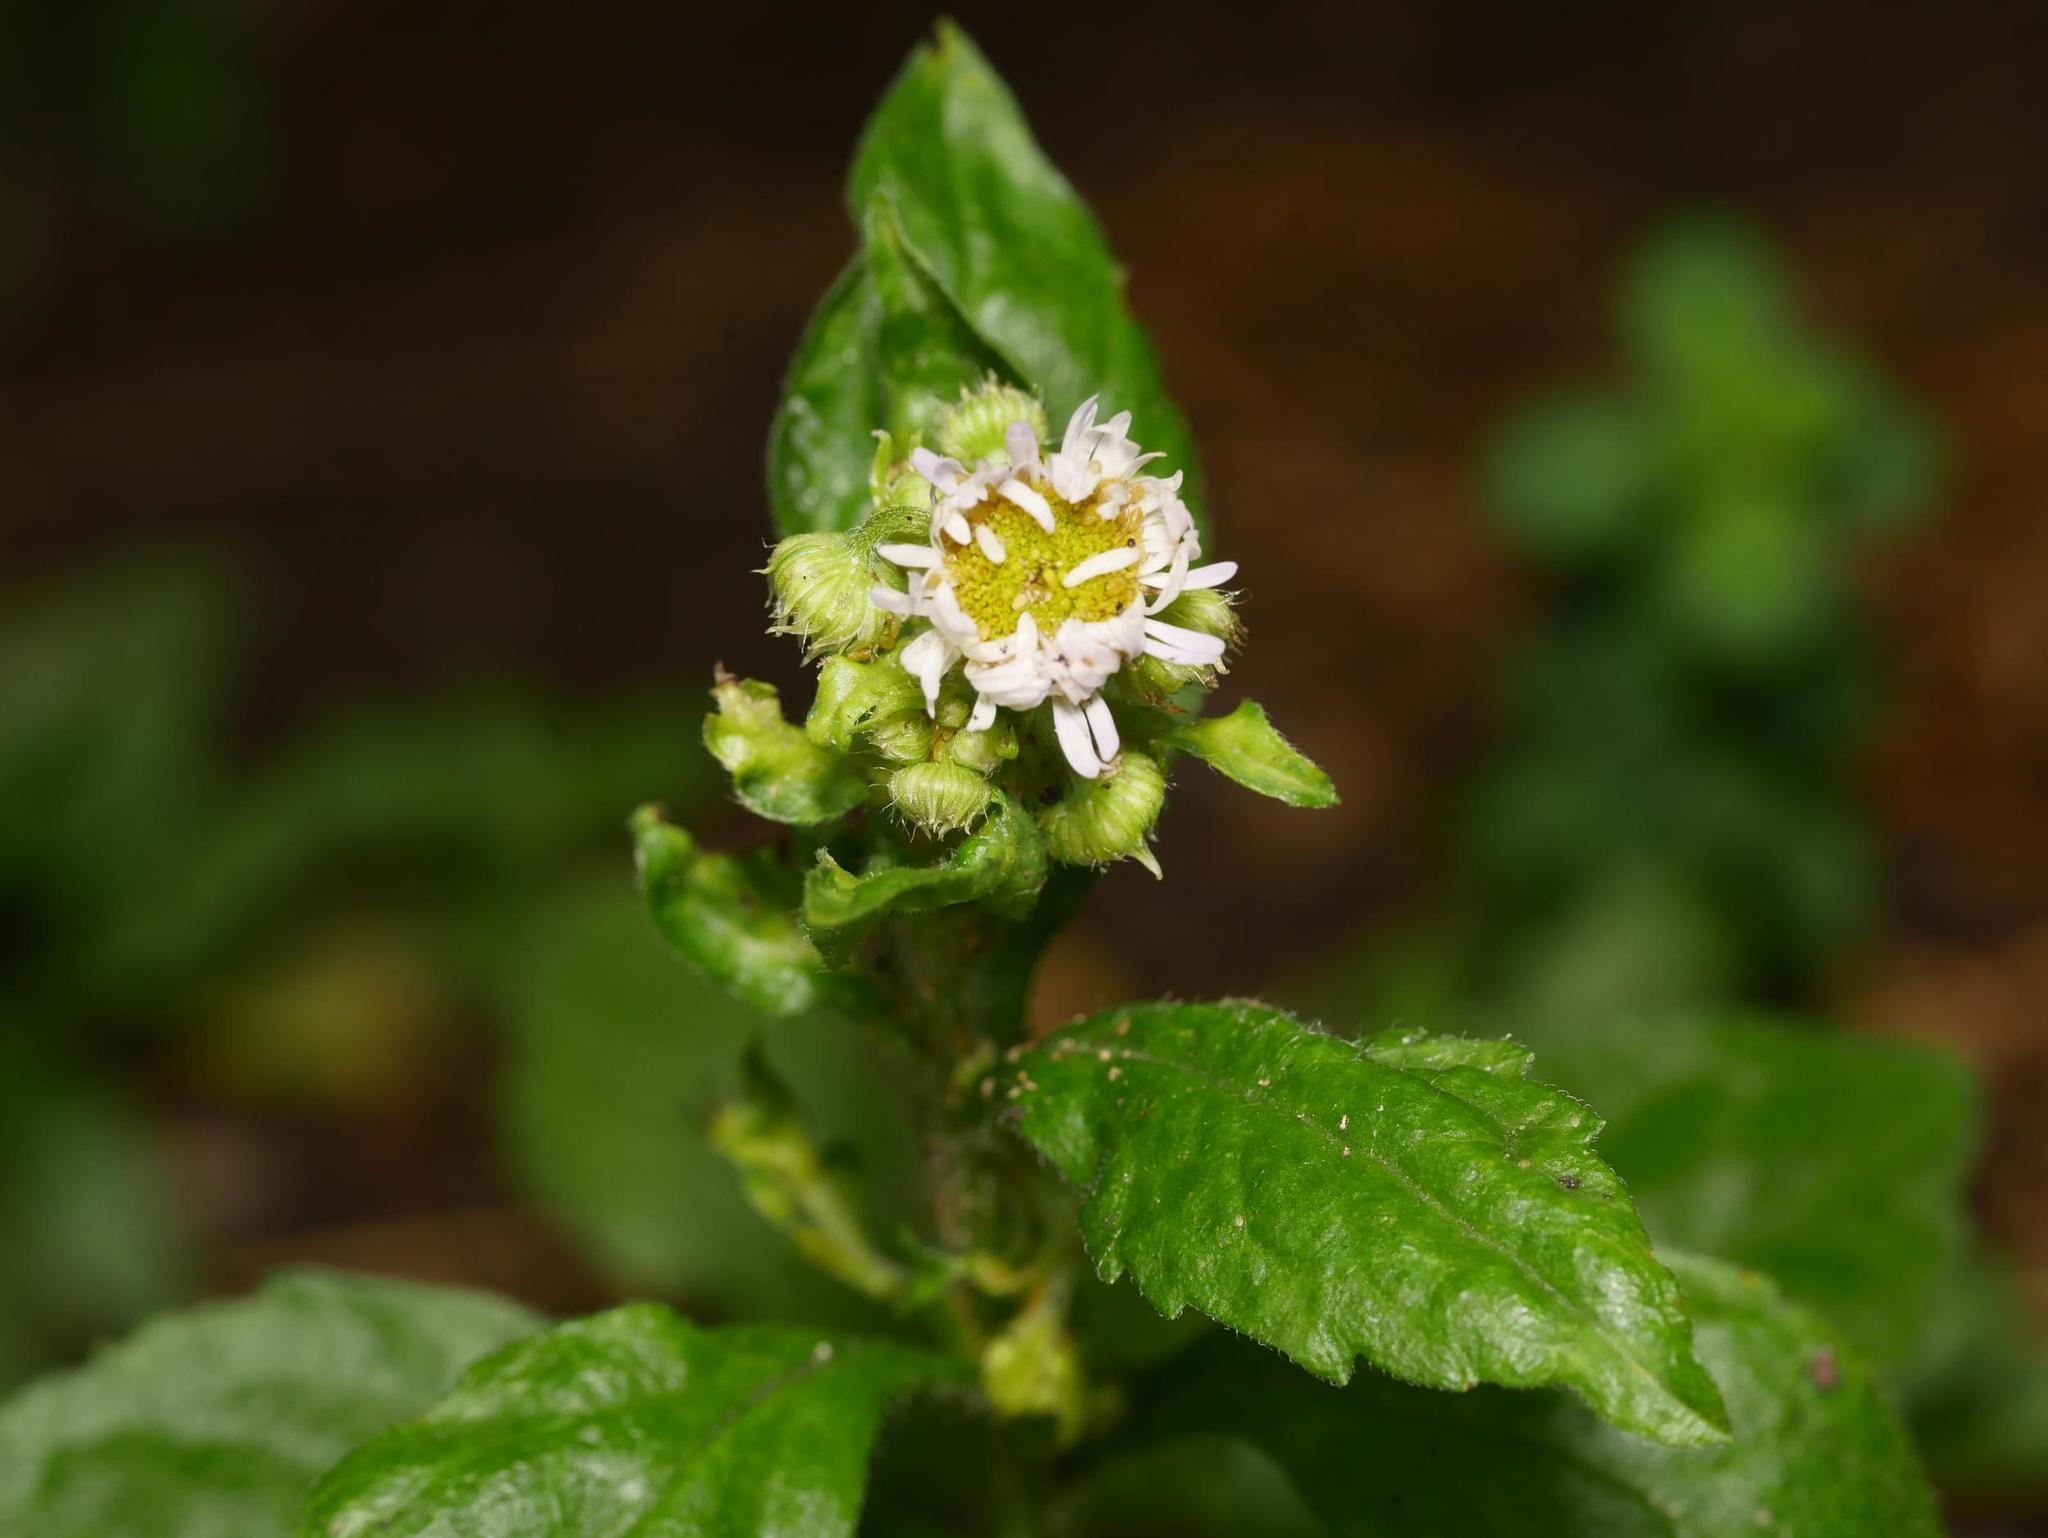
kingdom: Plantae
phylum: Tracheophyta
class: Magnoliopsida
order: Asterales
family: Asteraceae
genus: Erigeron
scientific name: Erigeron annuus
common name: Tall fleabane
